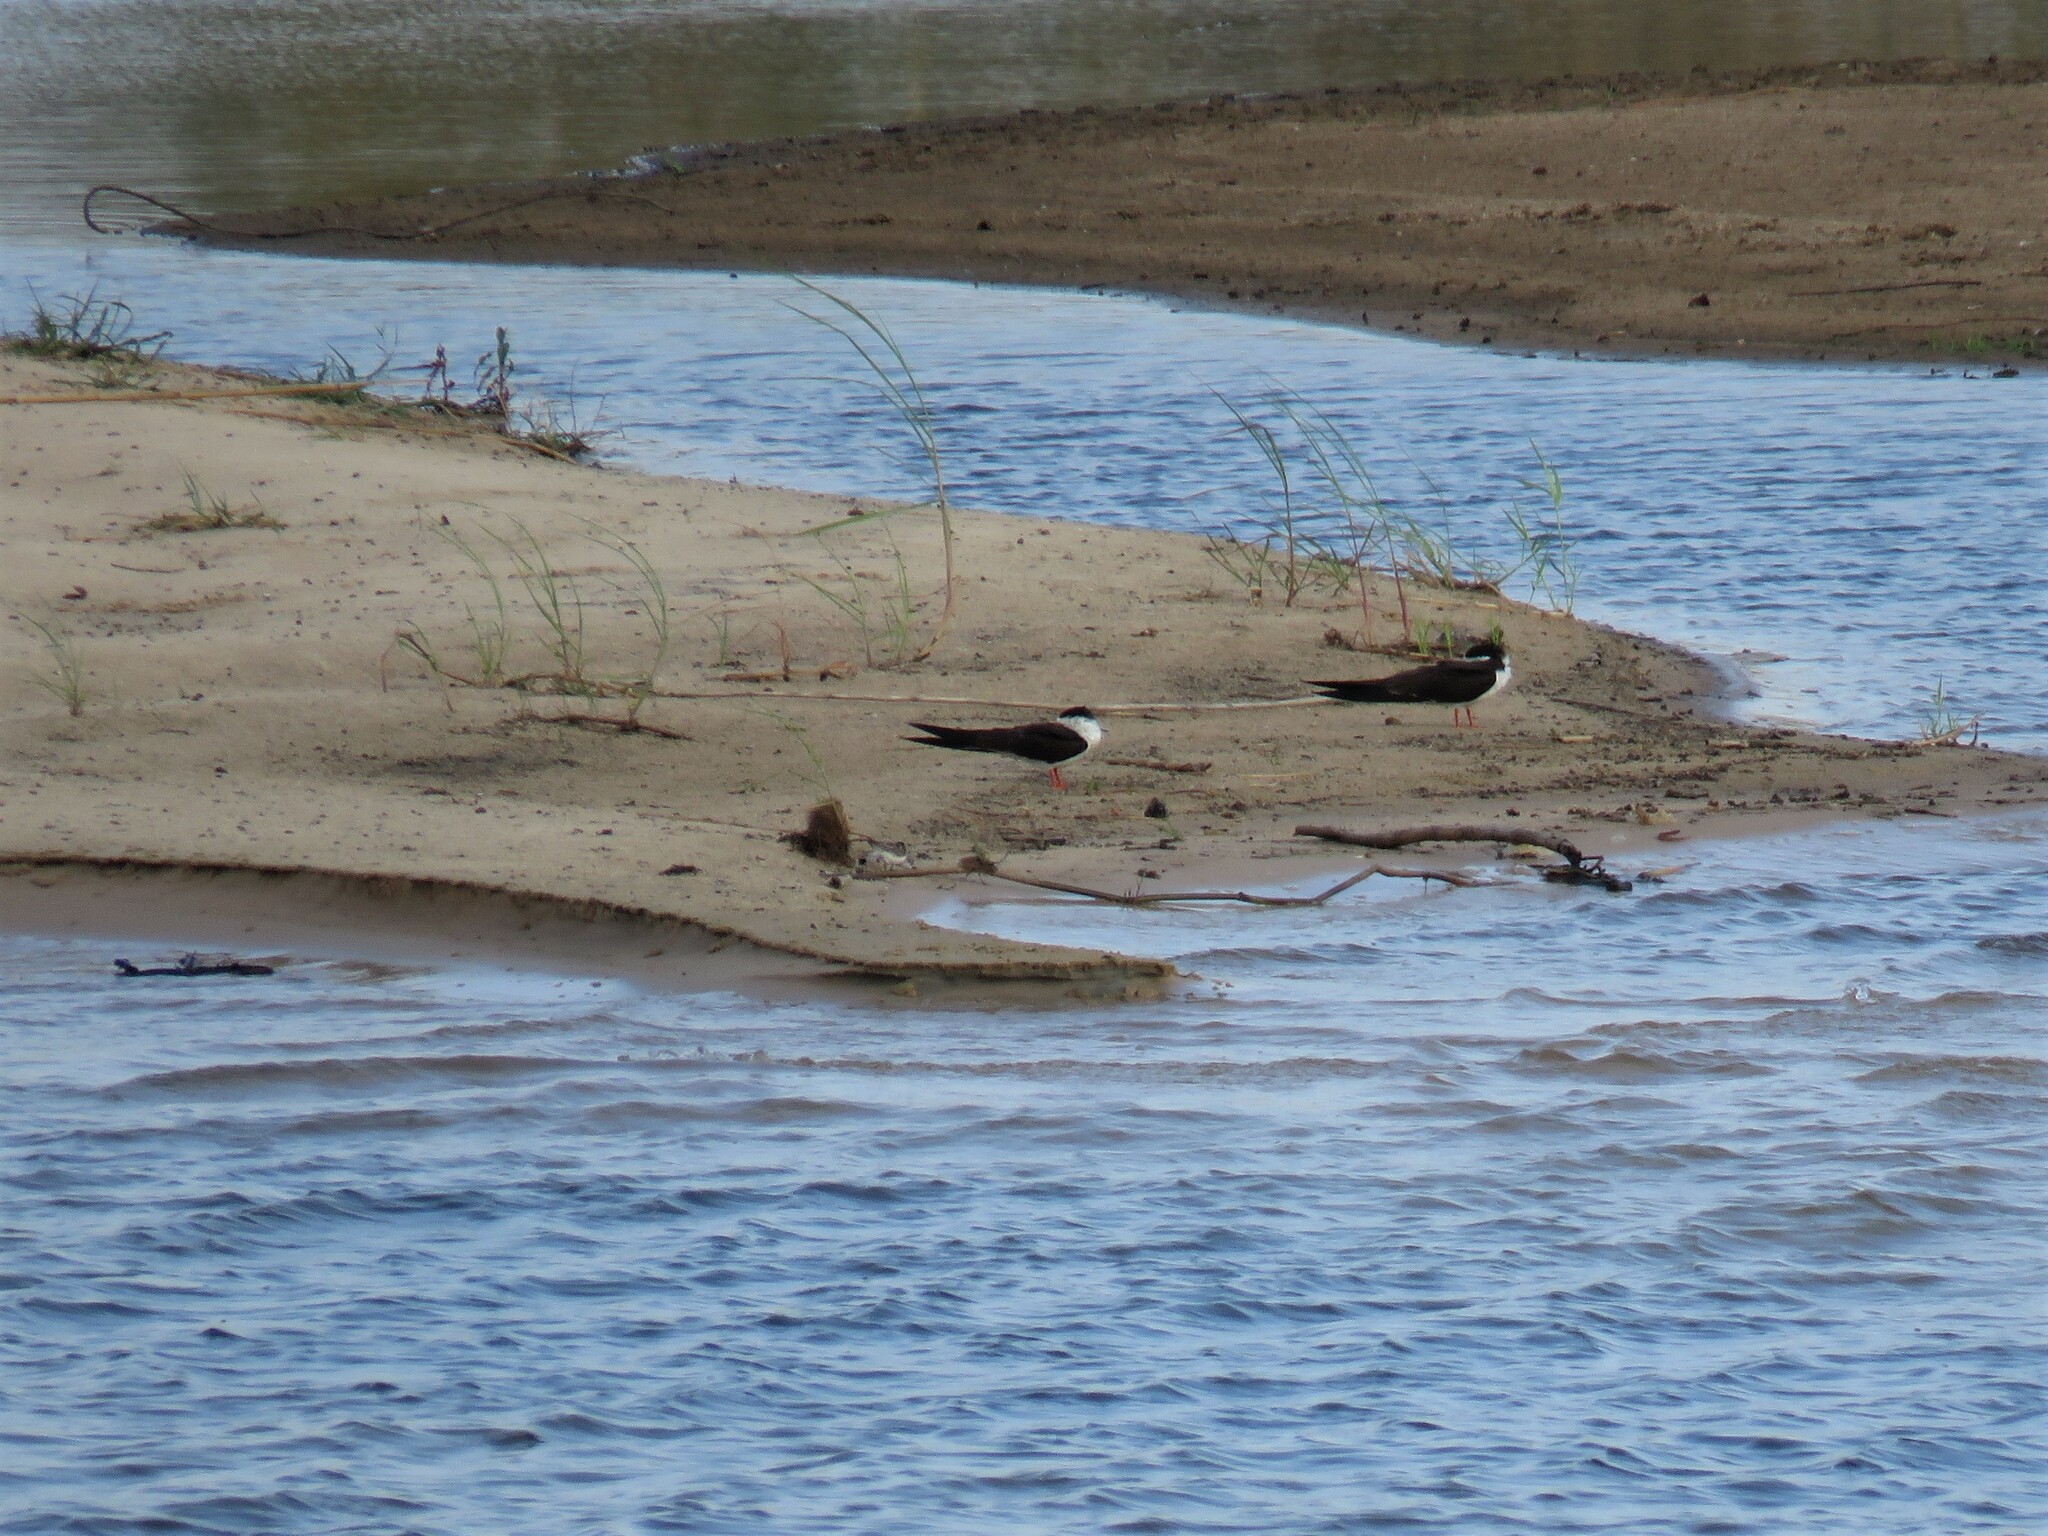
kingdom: Animalia
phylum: Chordata
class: Aves
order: Charadriiformes
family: Laridae
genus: Rynchops
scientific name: Rynchops flavirostris
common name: African skimmer
